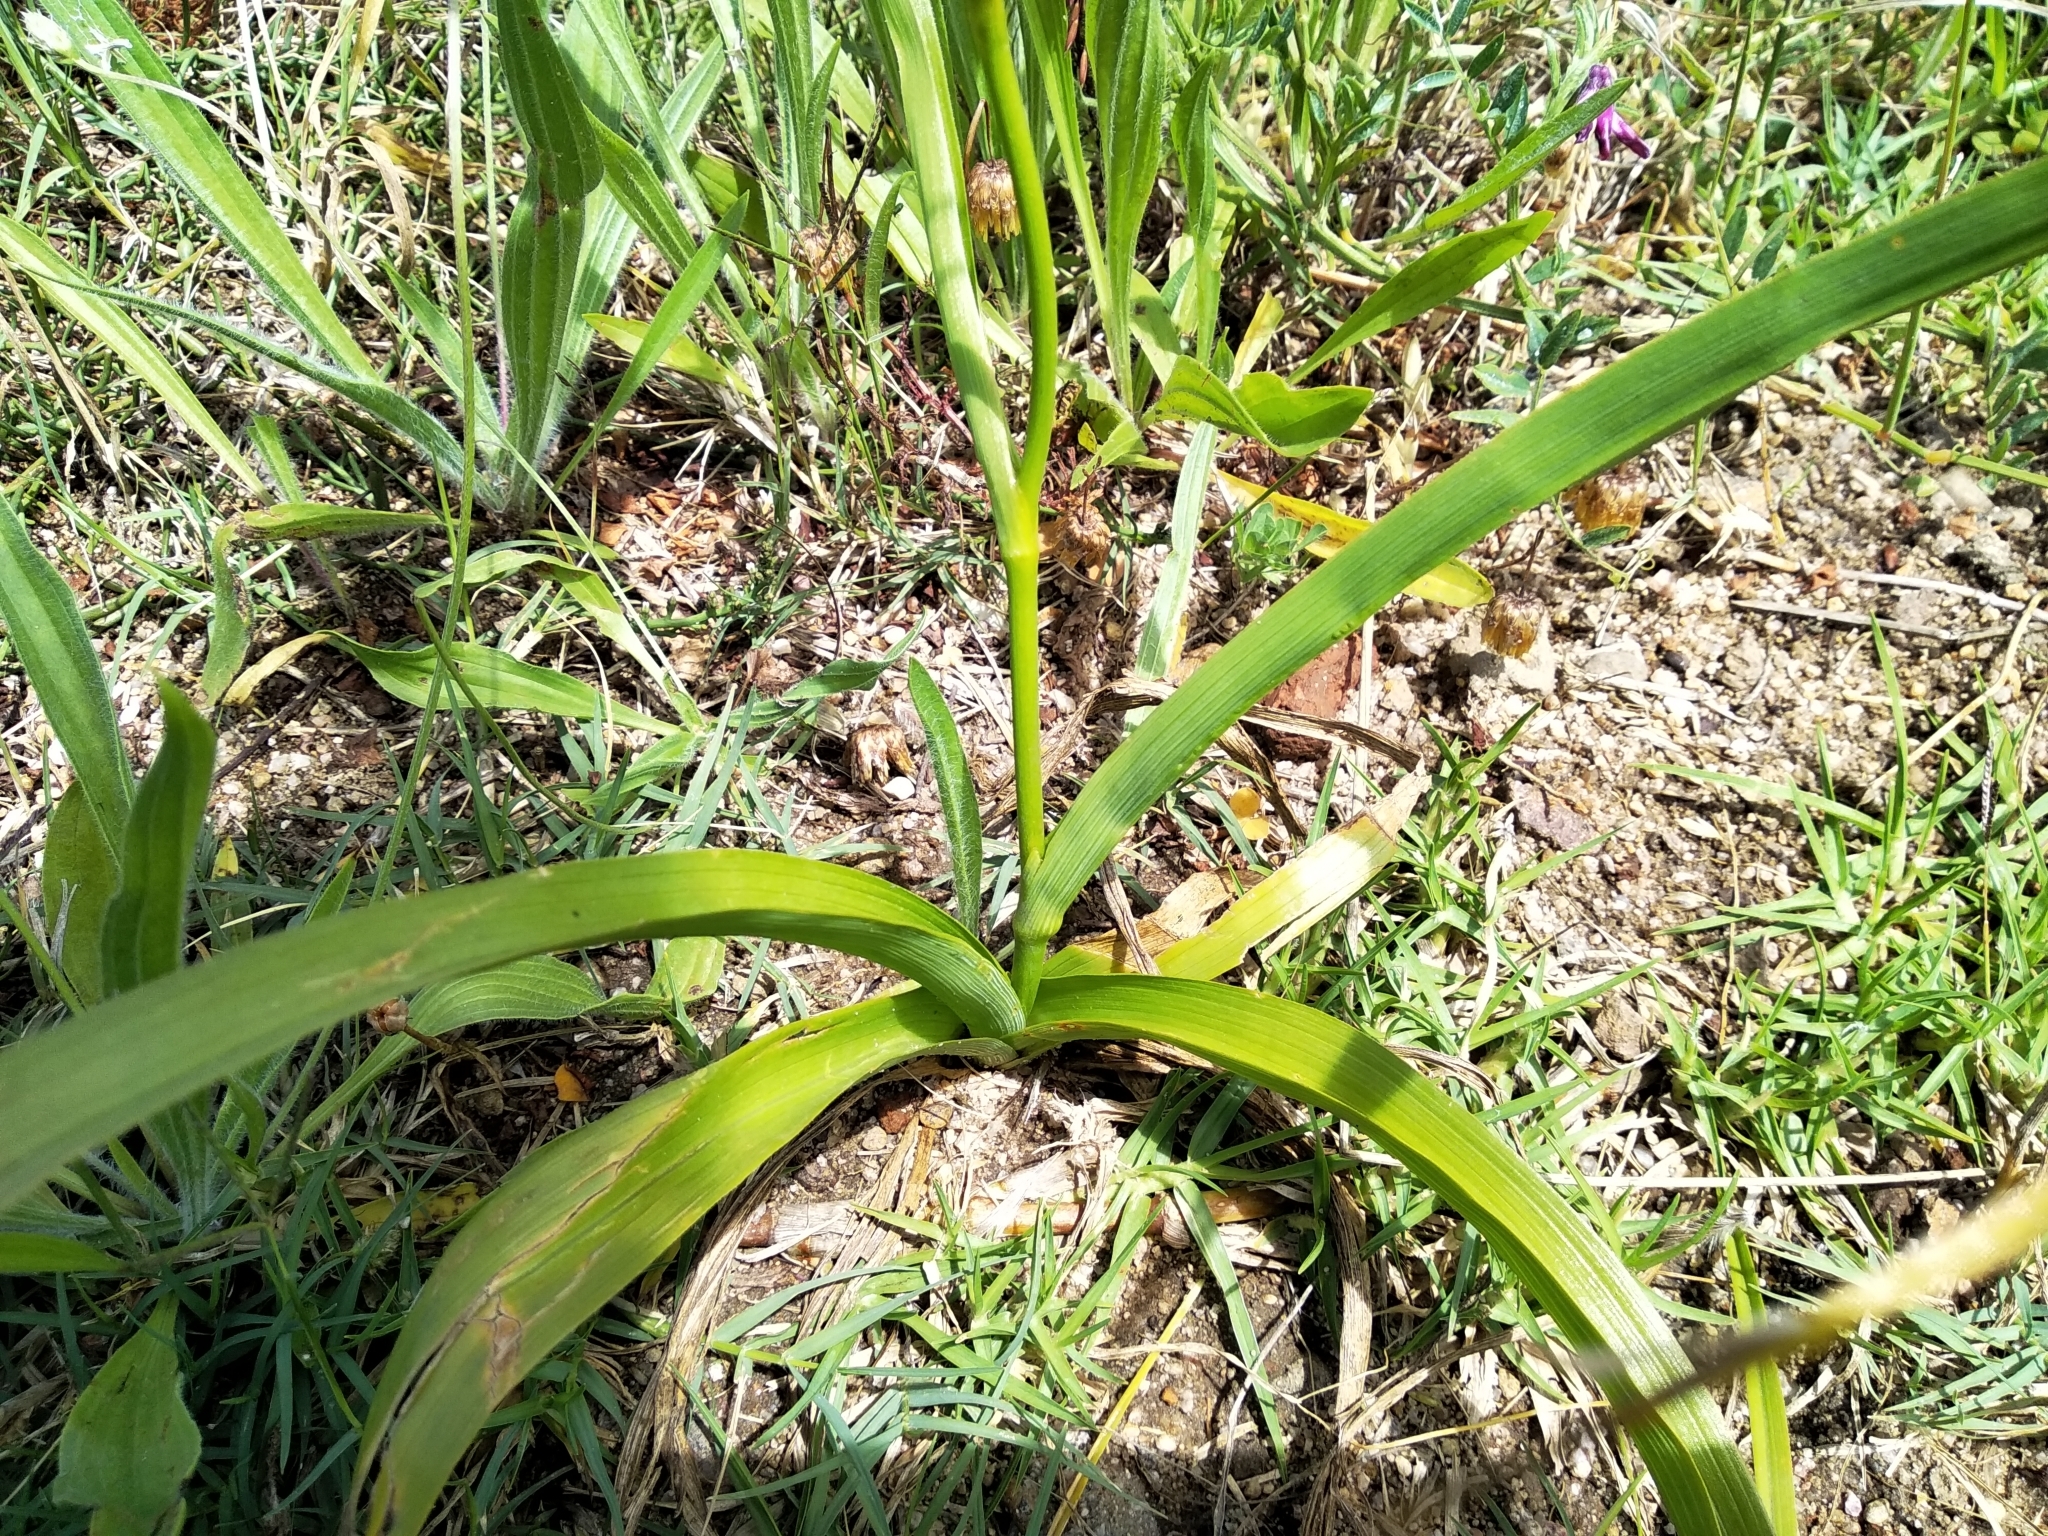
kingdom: Plantae
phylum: Tracheophyta
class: Liliopsida
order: Asparagales
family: Iridaceae
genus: Moraea
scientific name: Moraea ramosissima
